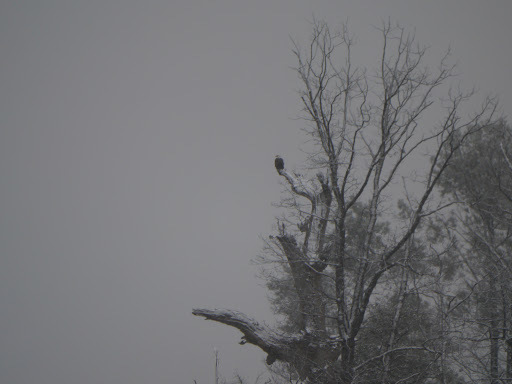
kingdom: Animalia
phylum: Chordata
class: Aves
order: Accipitriformes
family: Accipitridae
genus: Haliaeetus
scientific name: Haliaeetus leucocephalus
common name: Bald eagle
